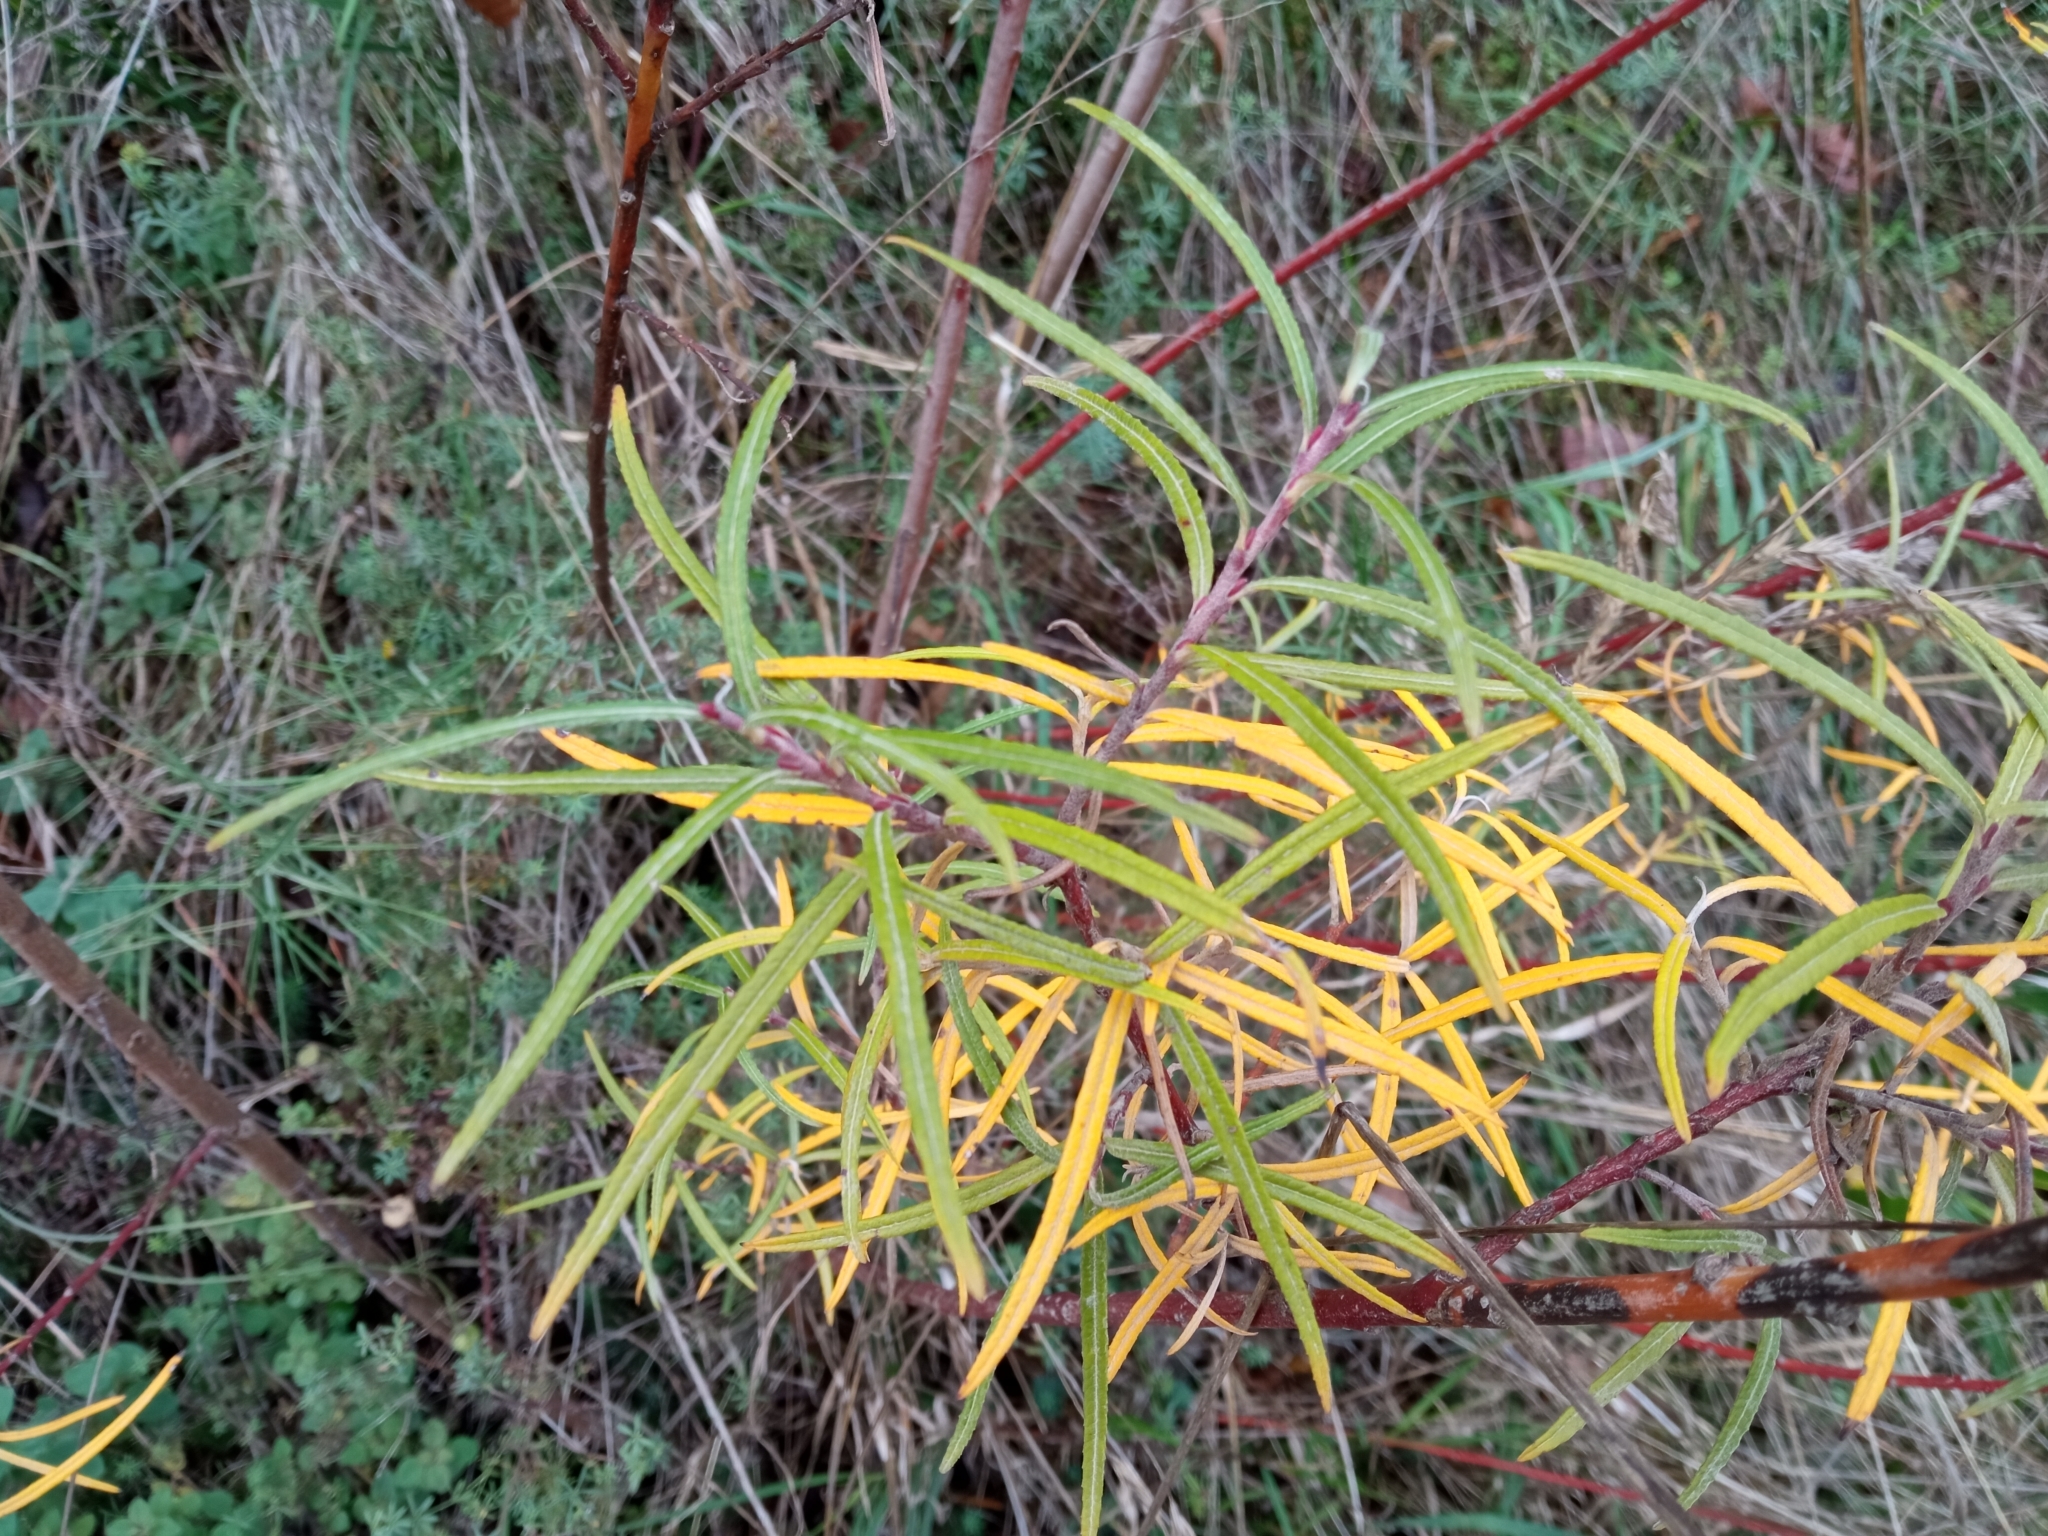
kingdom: Plantae
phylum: Tracheophyta
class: Magnoliopsida
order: Malpighiales
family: Salicaceae
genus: Salix
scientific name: Salix eleagnos
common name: Elaeagnus willow
